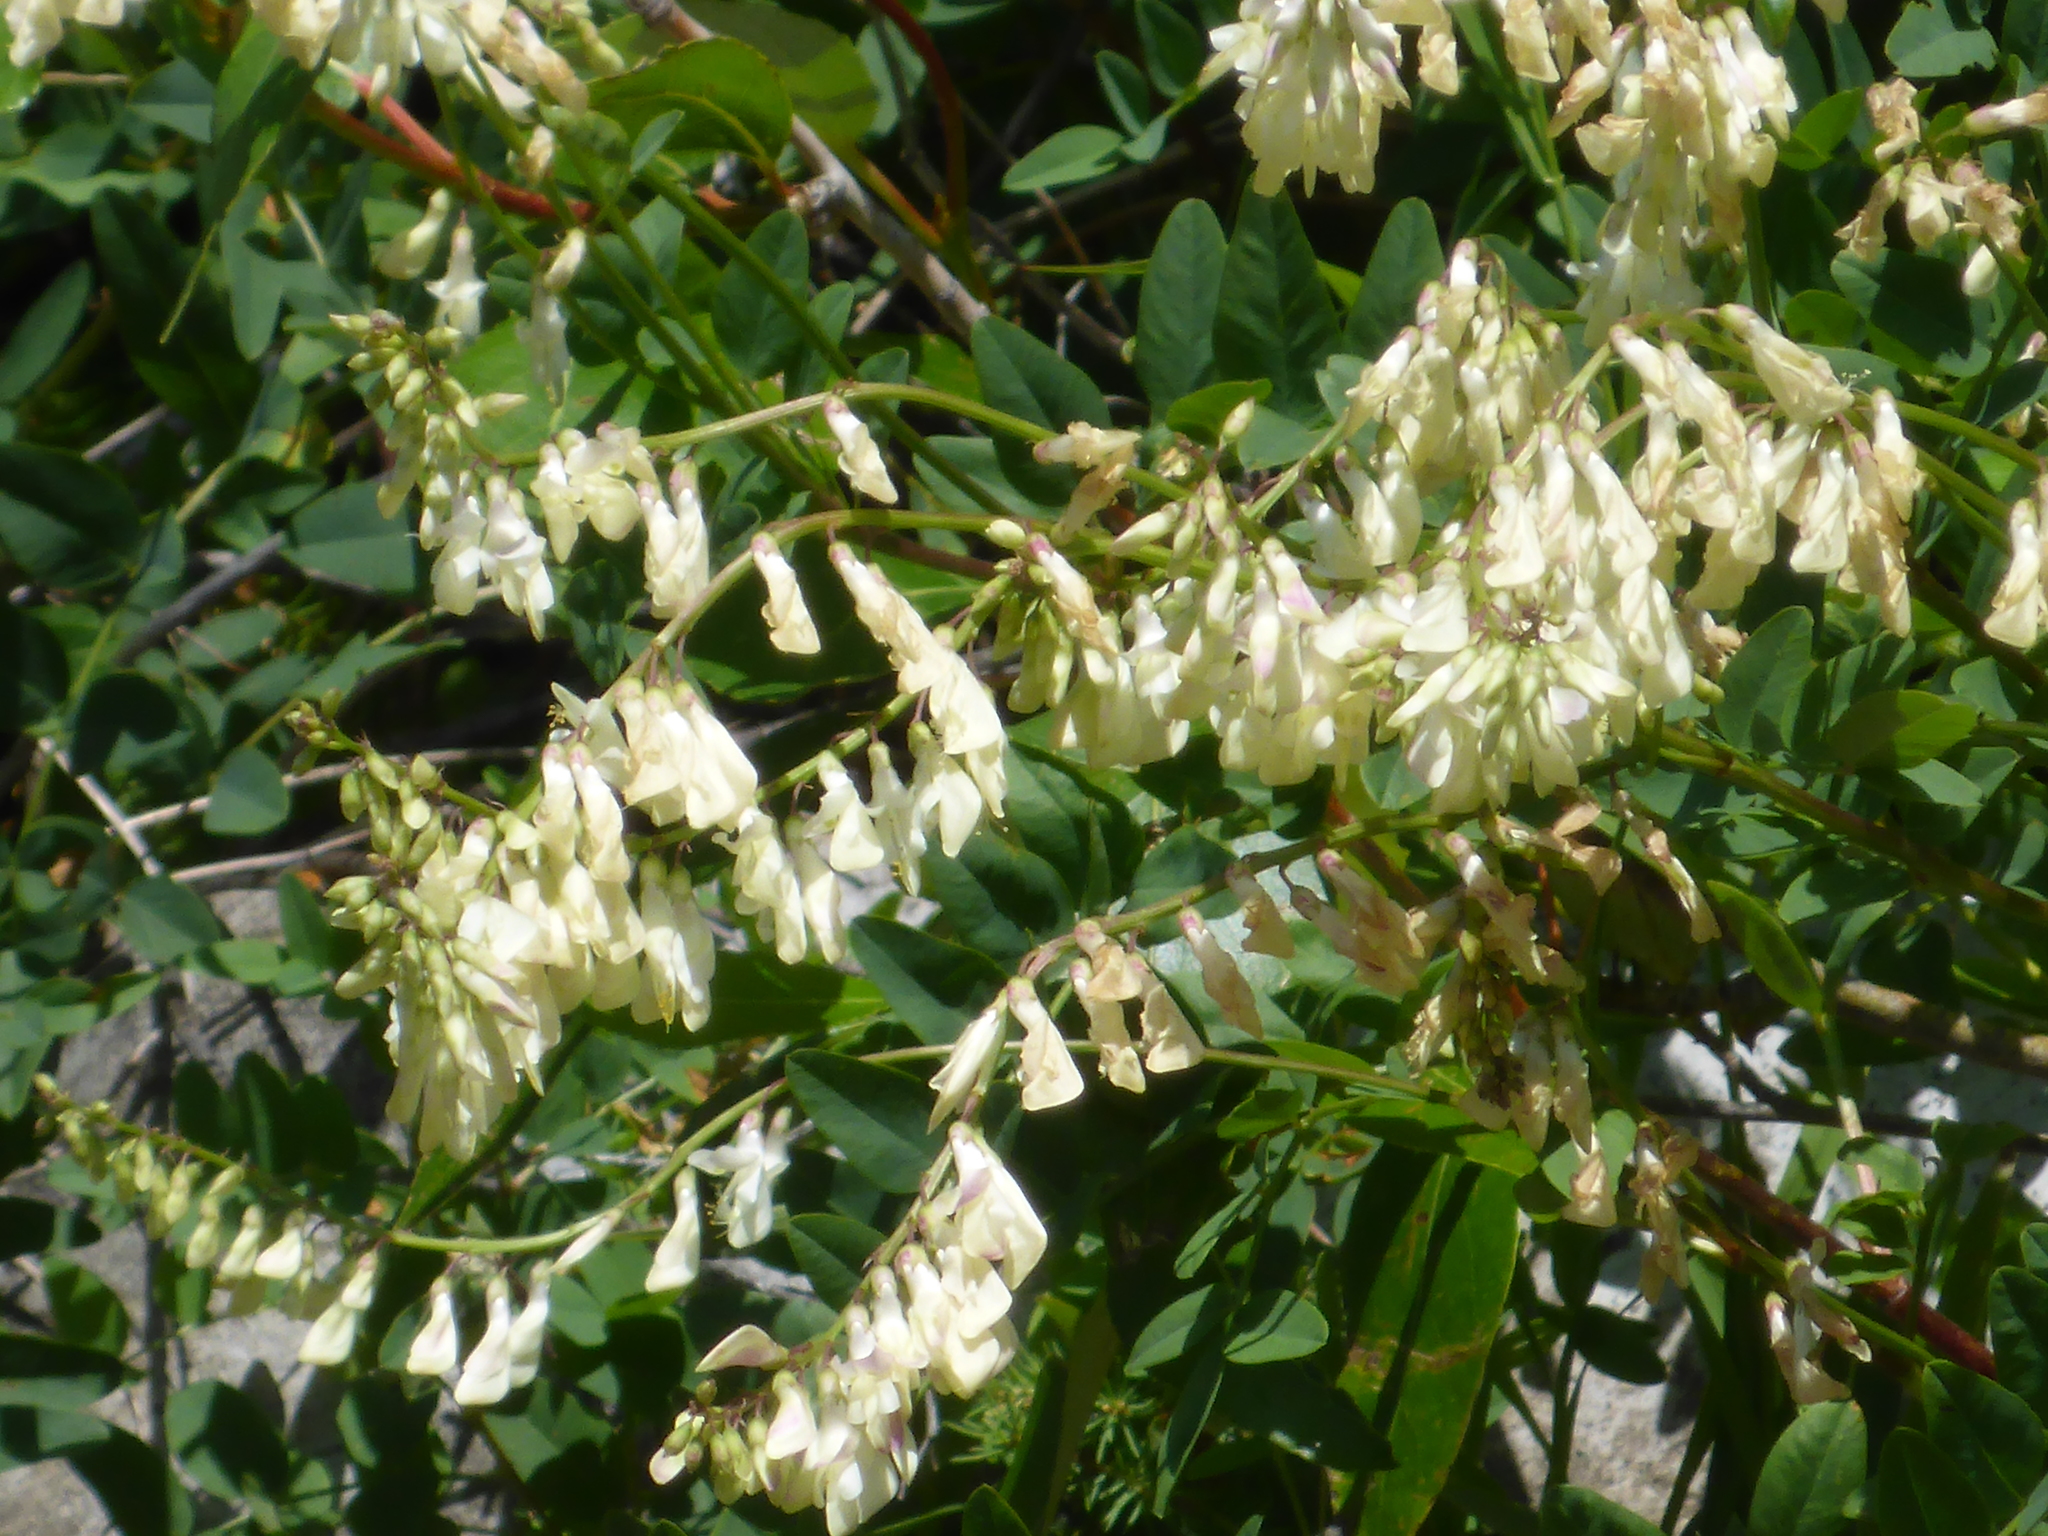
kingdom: Plantae
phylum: Tracheophyta
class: Magnoliopsida
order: Fabales
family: Fabaceae
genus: Hedysarum
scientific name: Hedysarum sulphurescens
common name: Sulphur hedysarum
